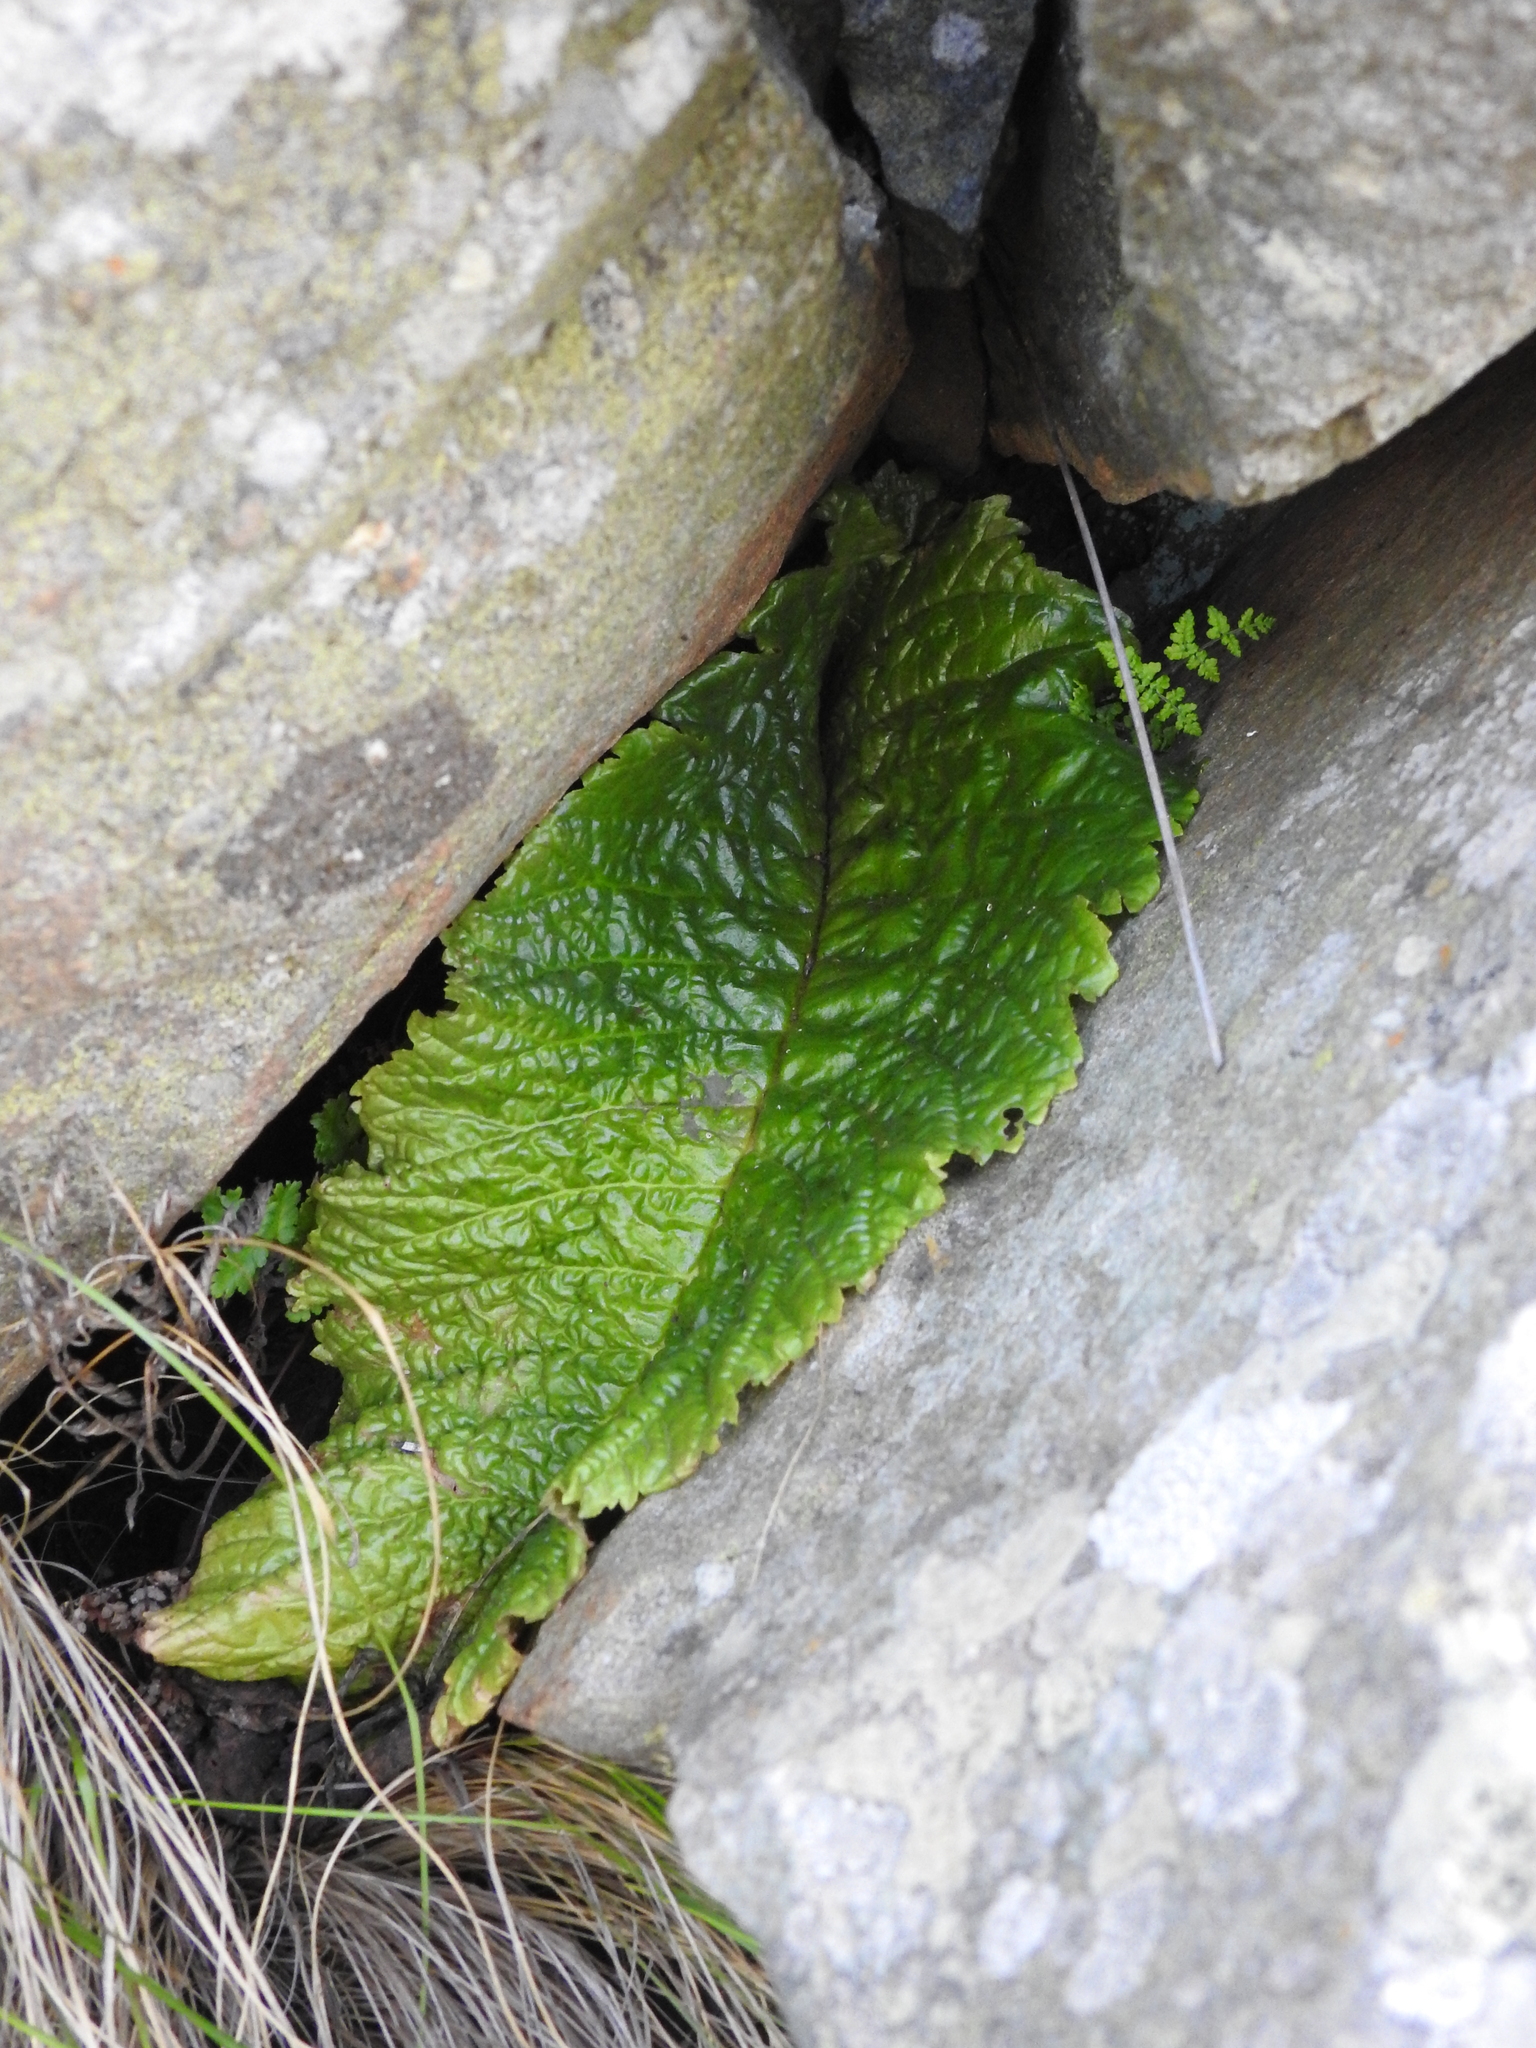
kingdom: Plantae
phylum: Tracheophyta
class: Magnoliopsida
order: Lamiales
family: Gesneriaceae
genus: Streptocarpus
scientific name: Streptocarpus denticulatus
